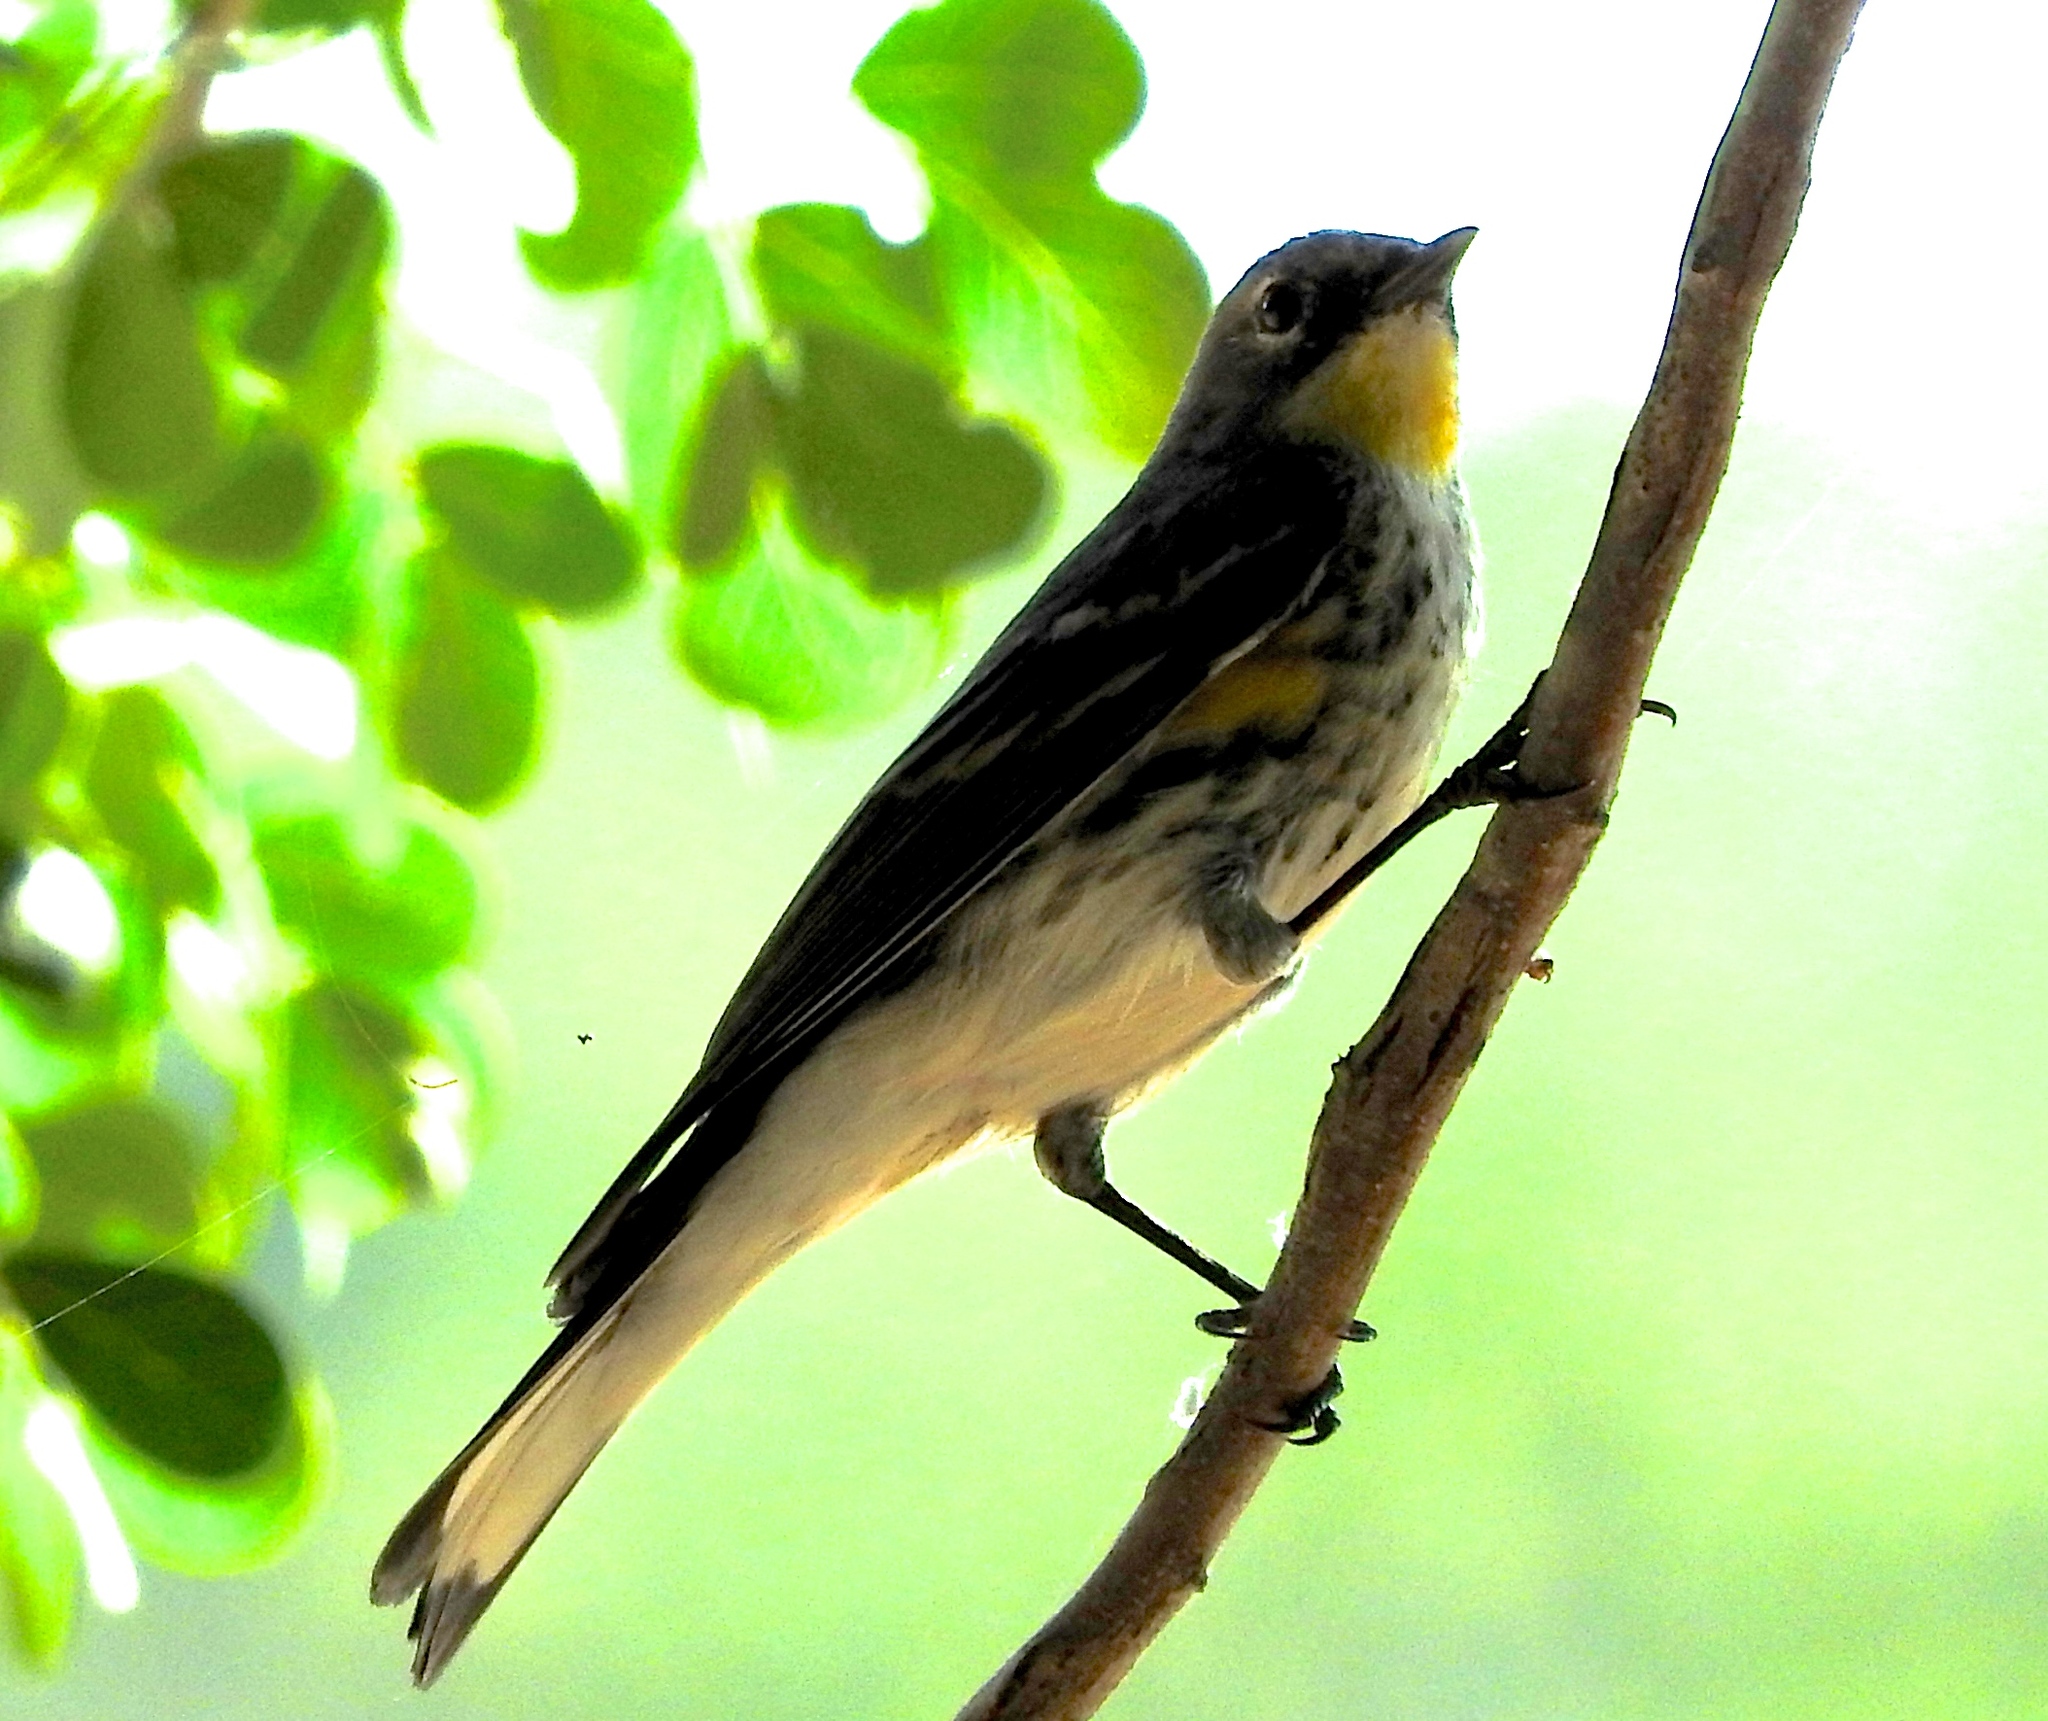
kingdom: Animalia
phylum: Chordata
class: Aves
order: Passeriformes
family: Parulidae
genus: Setophaga
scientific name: Setophaga coronata
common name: Myrtle warbler
